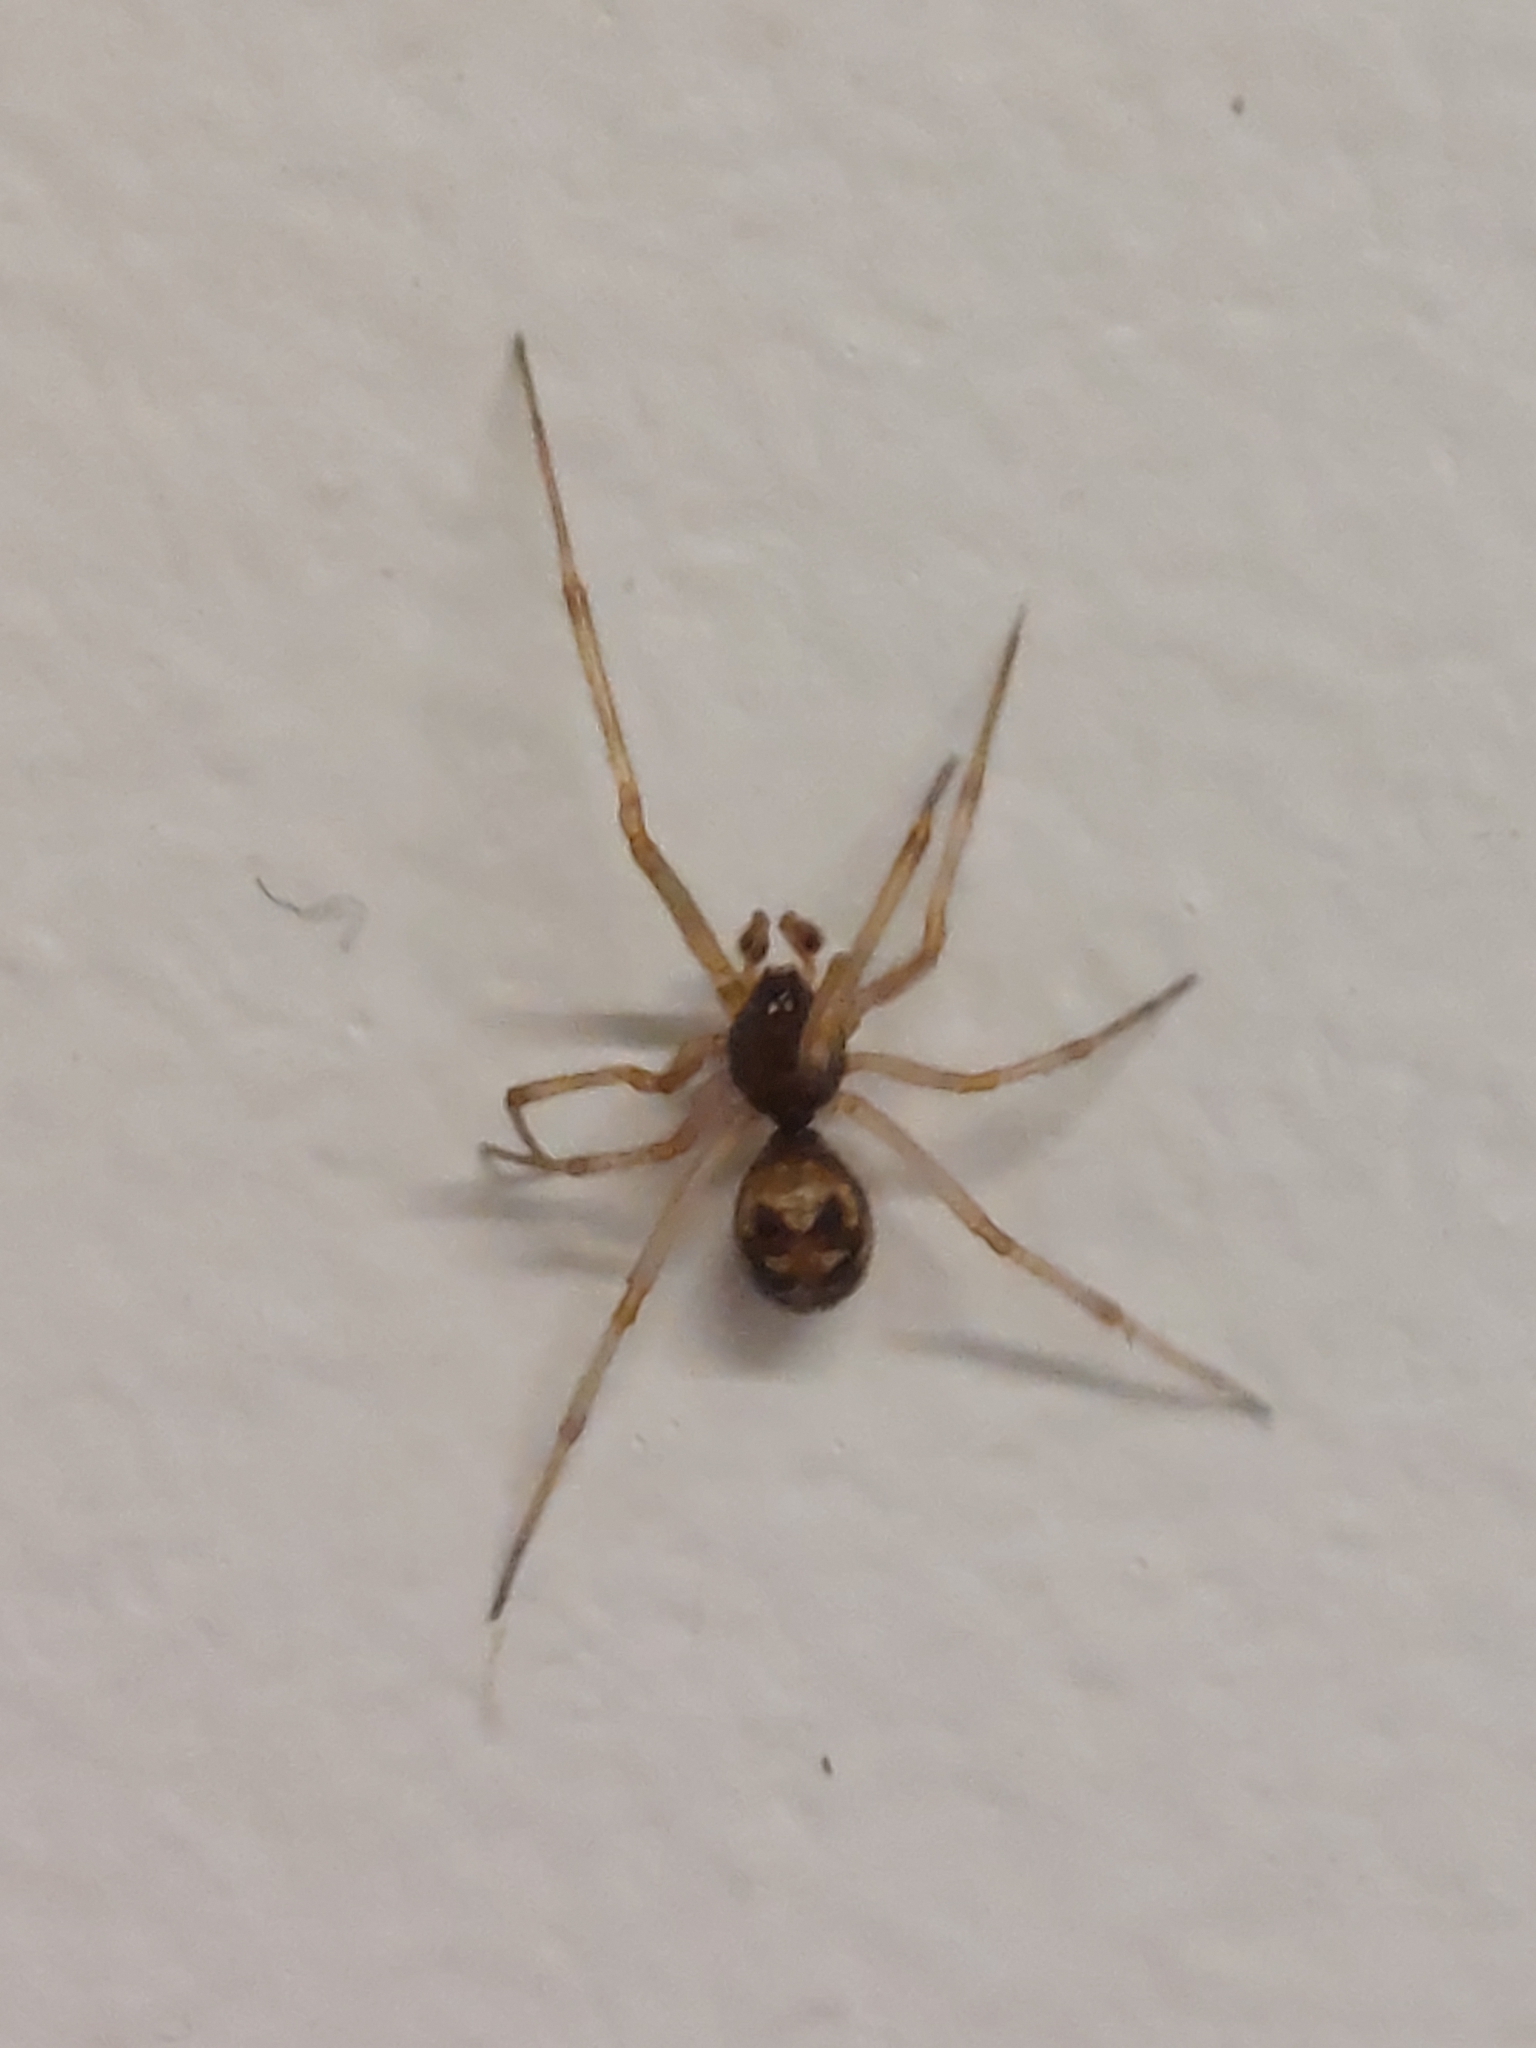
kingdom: Animalia
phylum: Arthropoda
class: Arachnida
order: Araneae
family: Theridiidae
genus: Steatoda
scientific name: Steatoda triangulosa
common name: Triangulate bud spider
